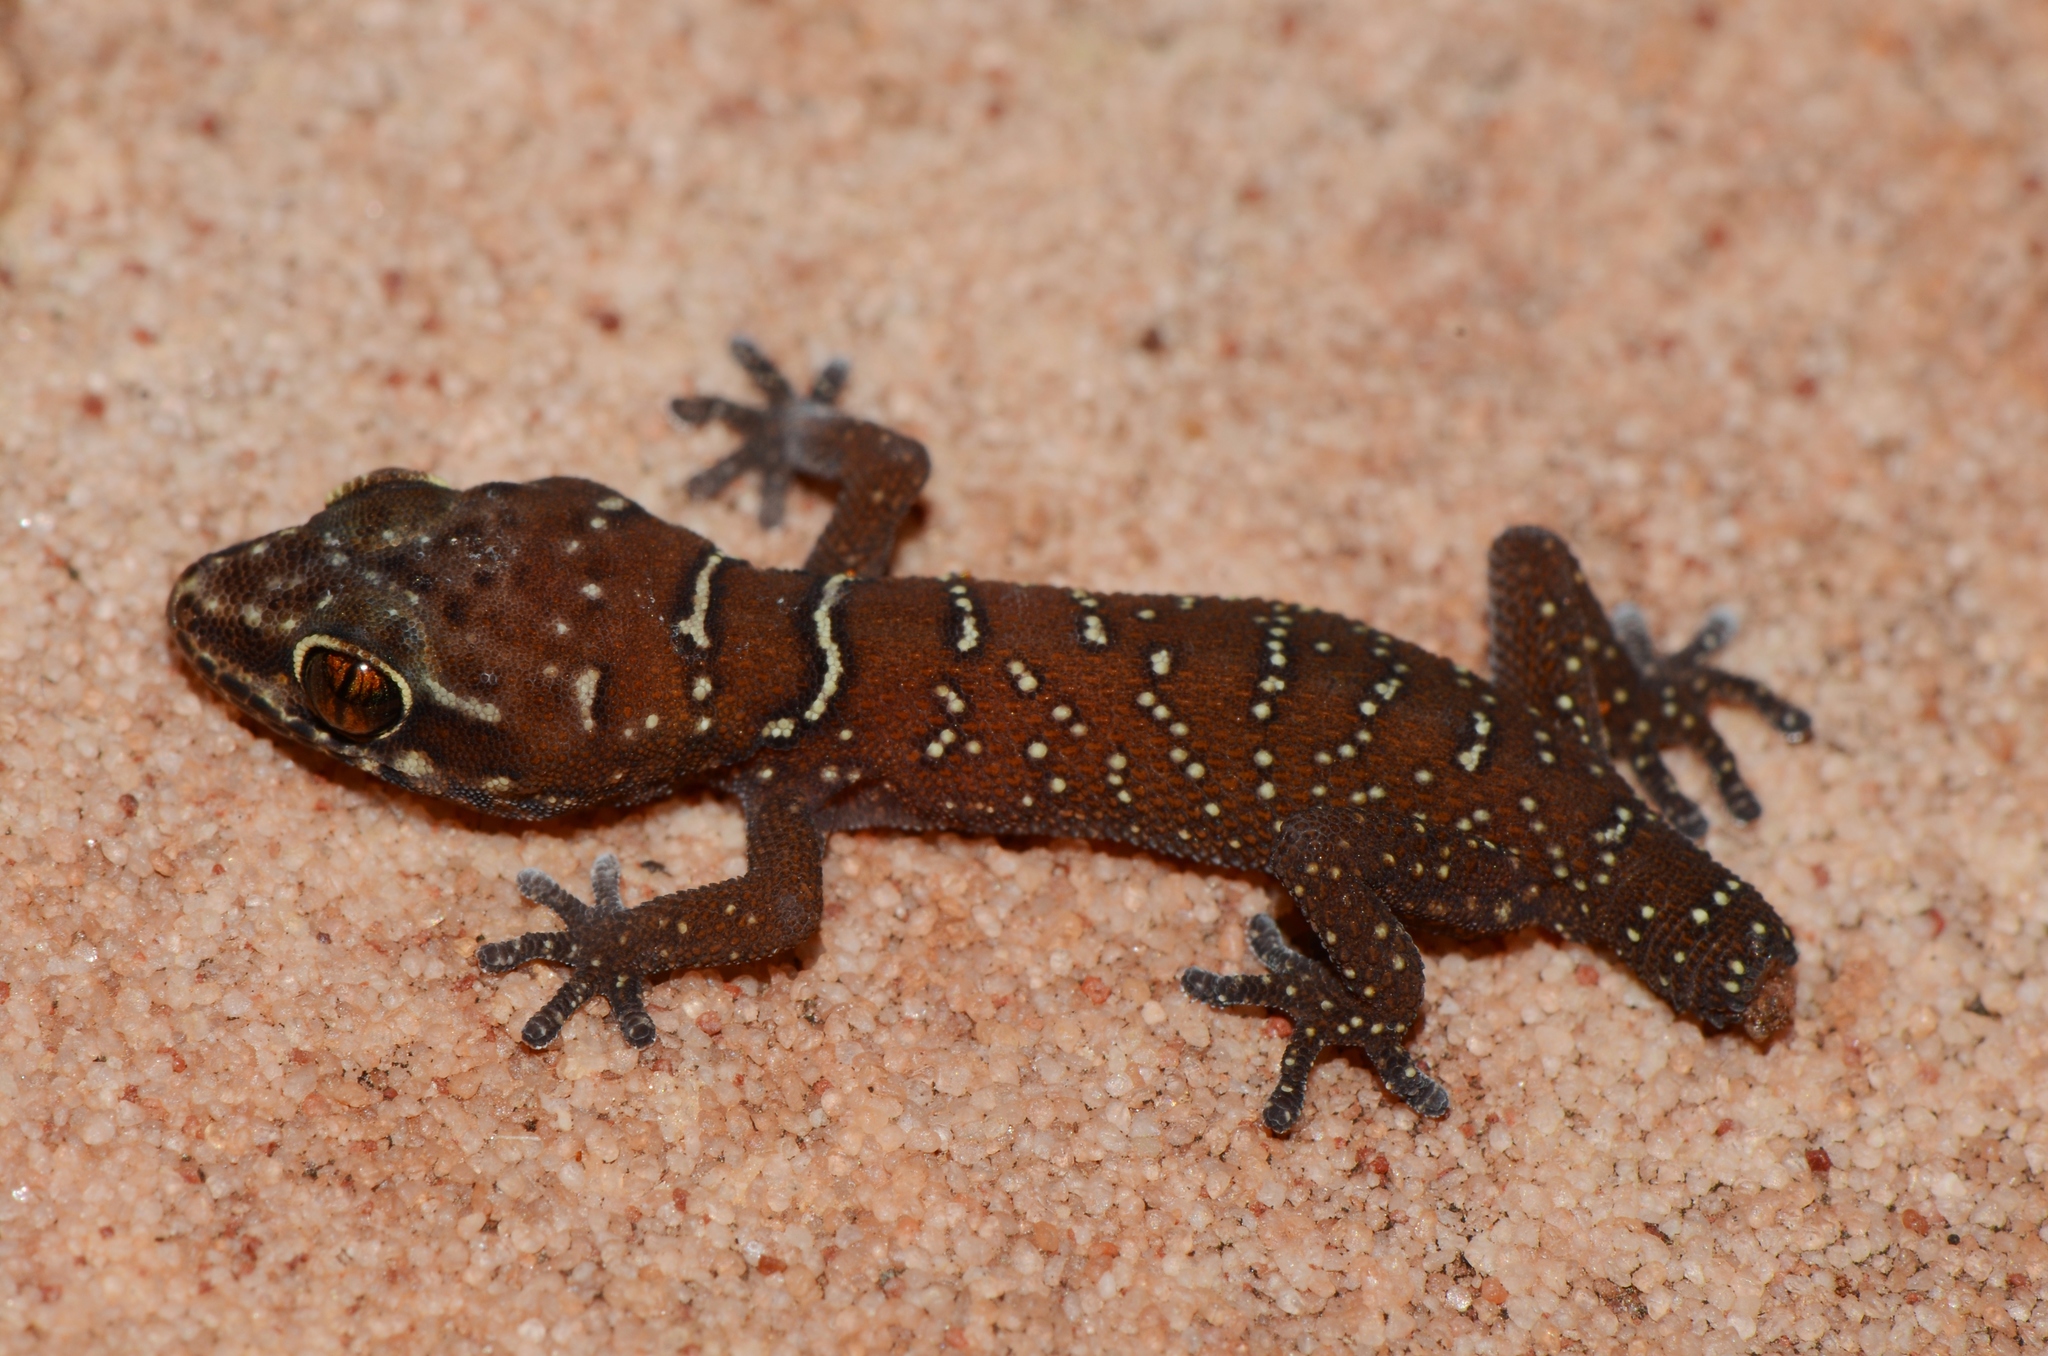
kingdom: Animalia
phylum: Chordata
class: Squamata
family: Gekkonidae
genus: Pachydactylus
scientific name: Pachydactylus affinis
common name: Transvaal gecko
